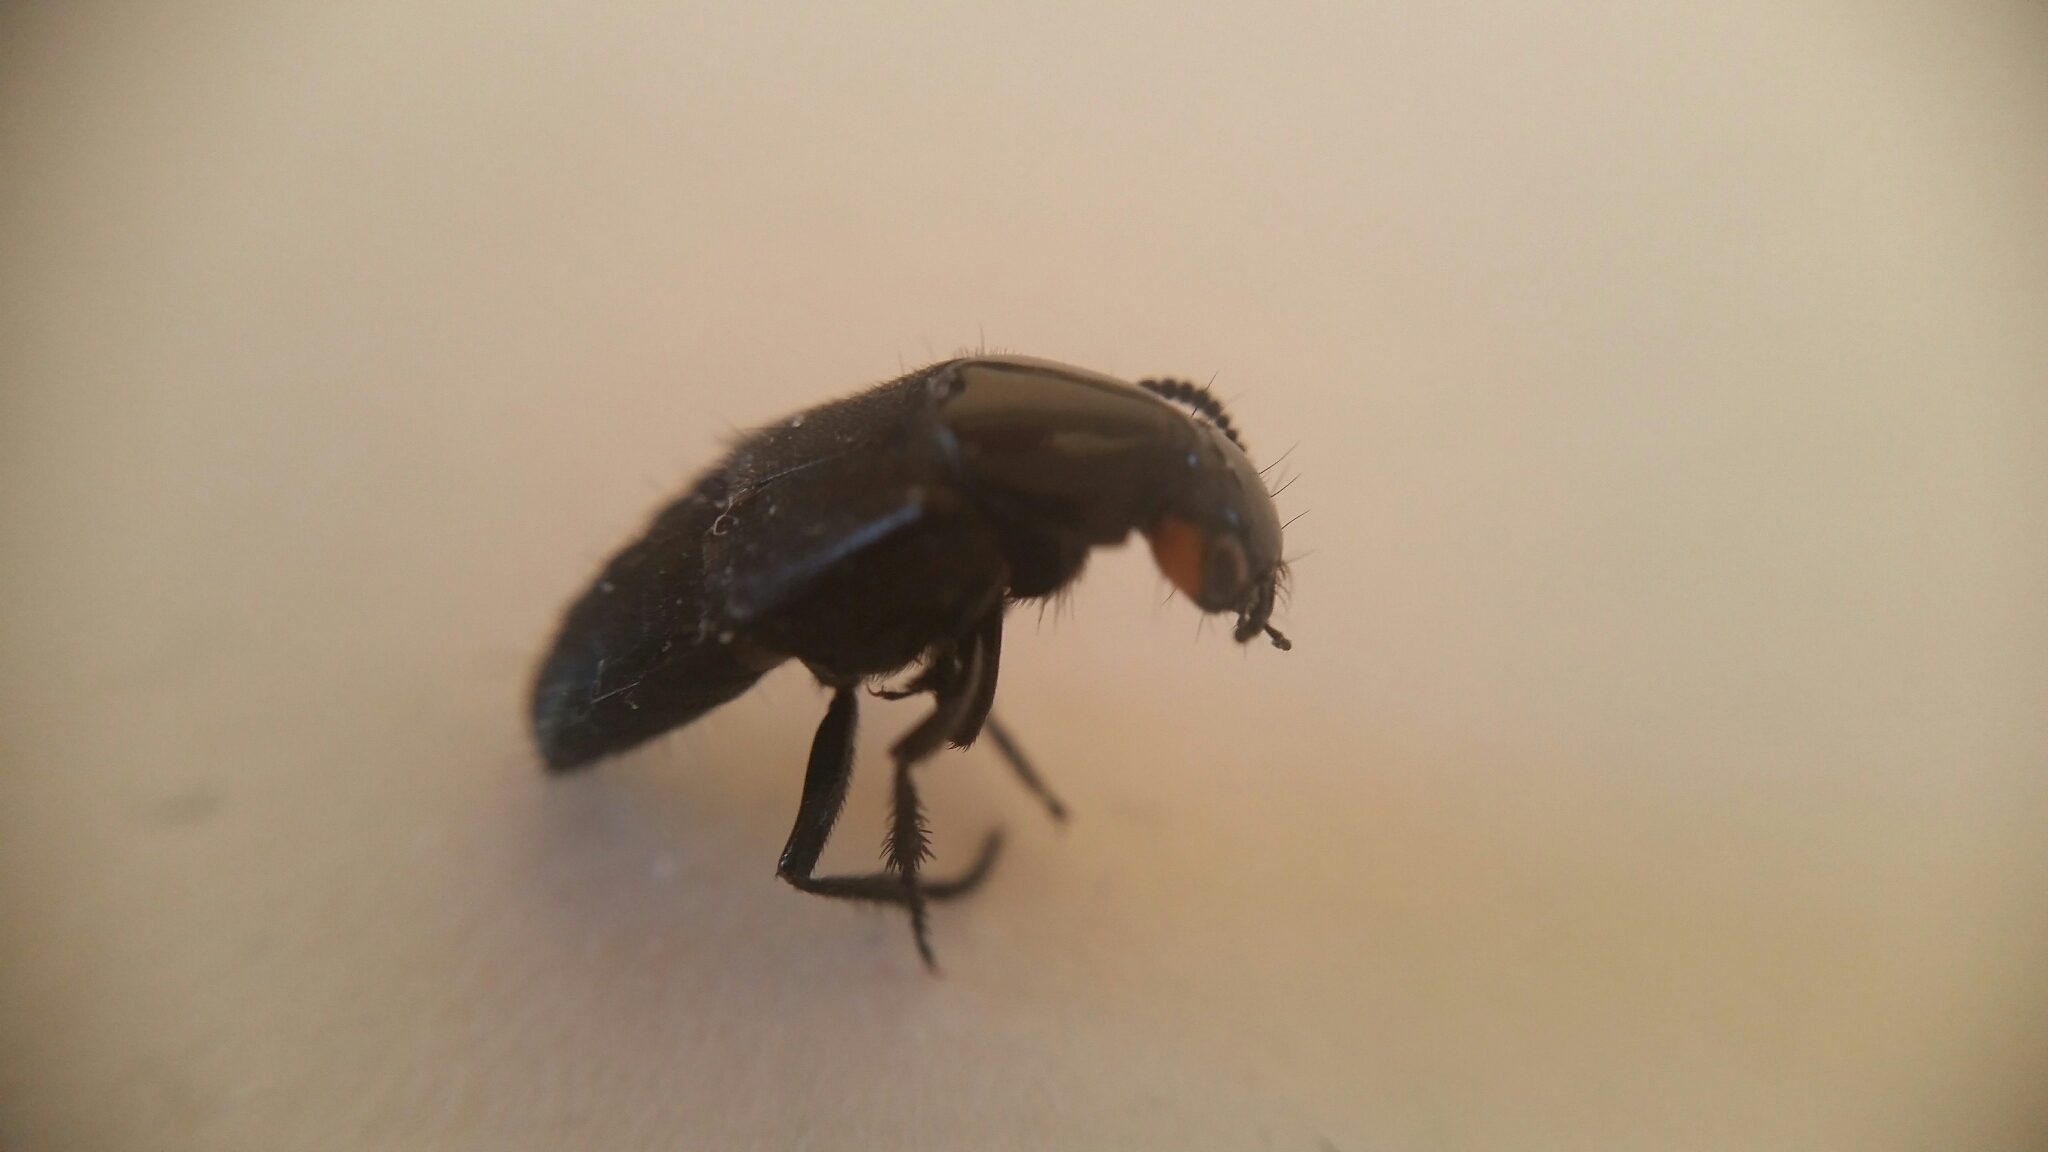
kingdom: Animalia
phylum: Arthropoda
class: Insecta
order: Coleoptera
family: Staphylinidae
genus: Creophilus
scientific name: Creophilus oculatus
